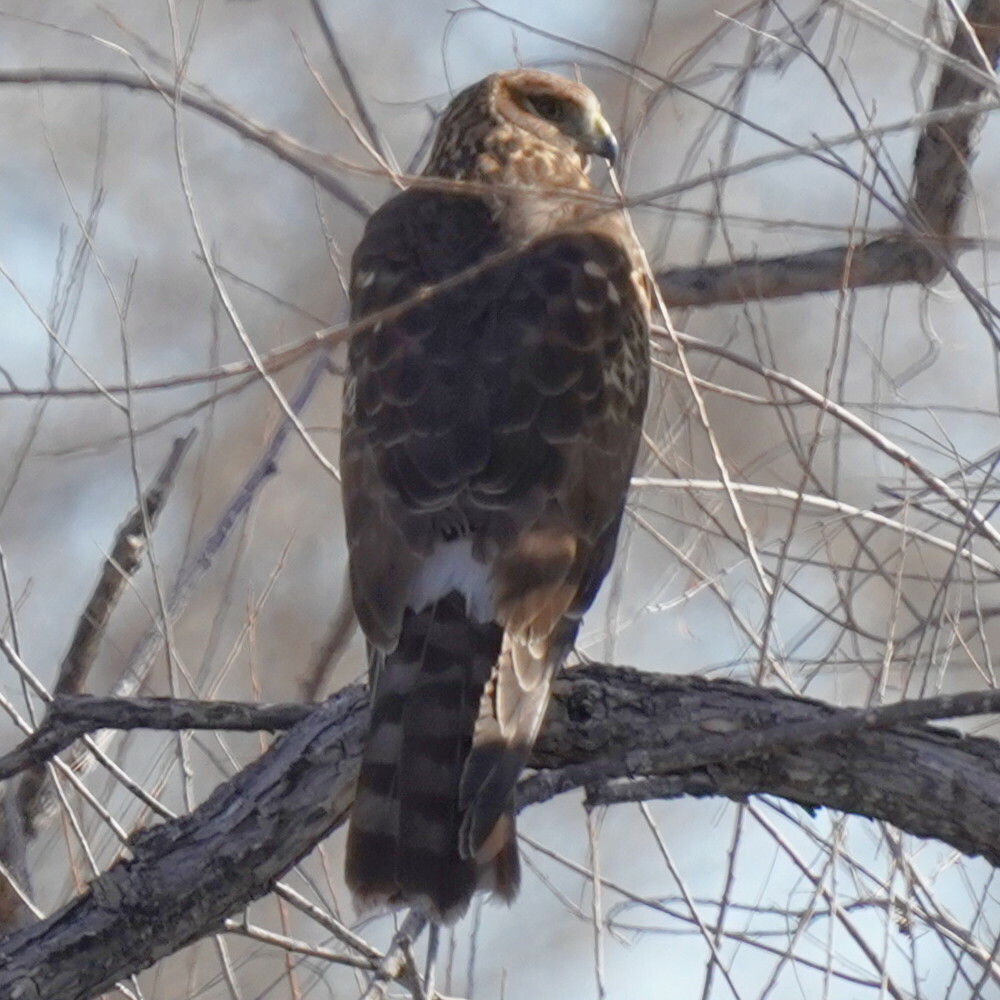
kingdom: Animalia
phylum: Chordata
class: Aves
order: Accipitriformes
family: Accipitridae
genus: Circus
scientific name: Circus cyaneus
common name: Hen harrier
